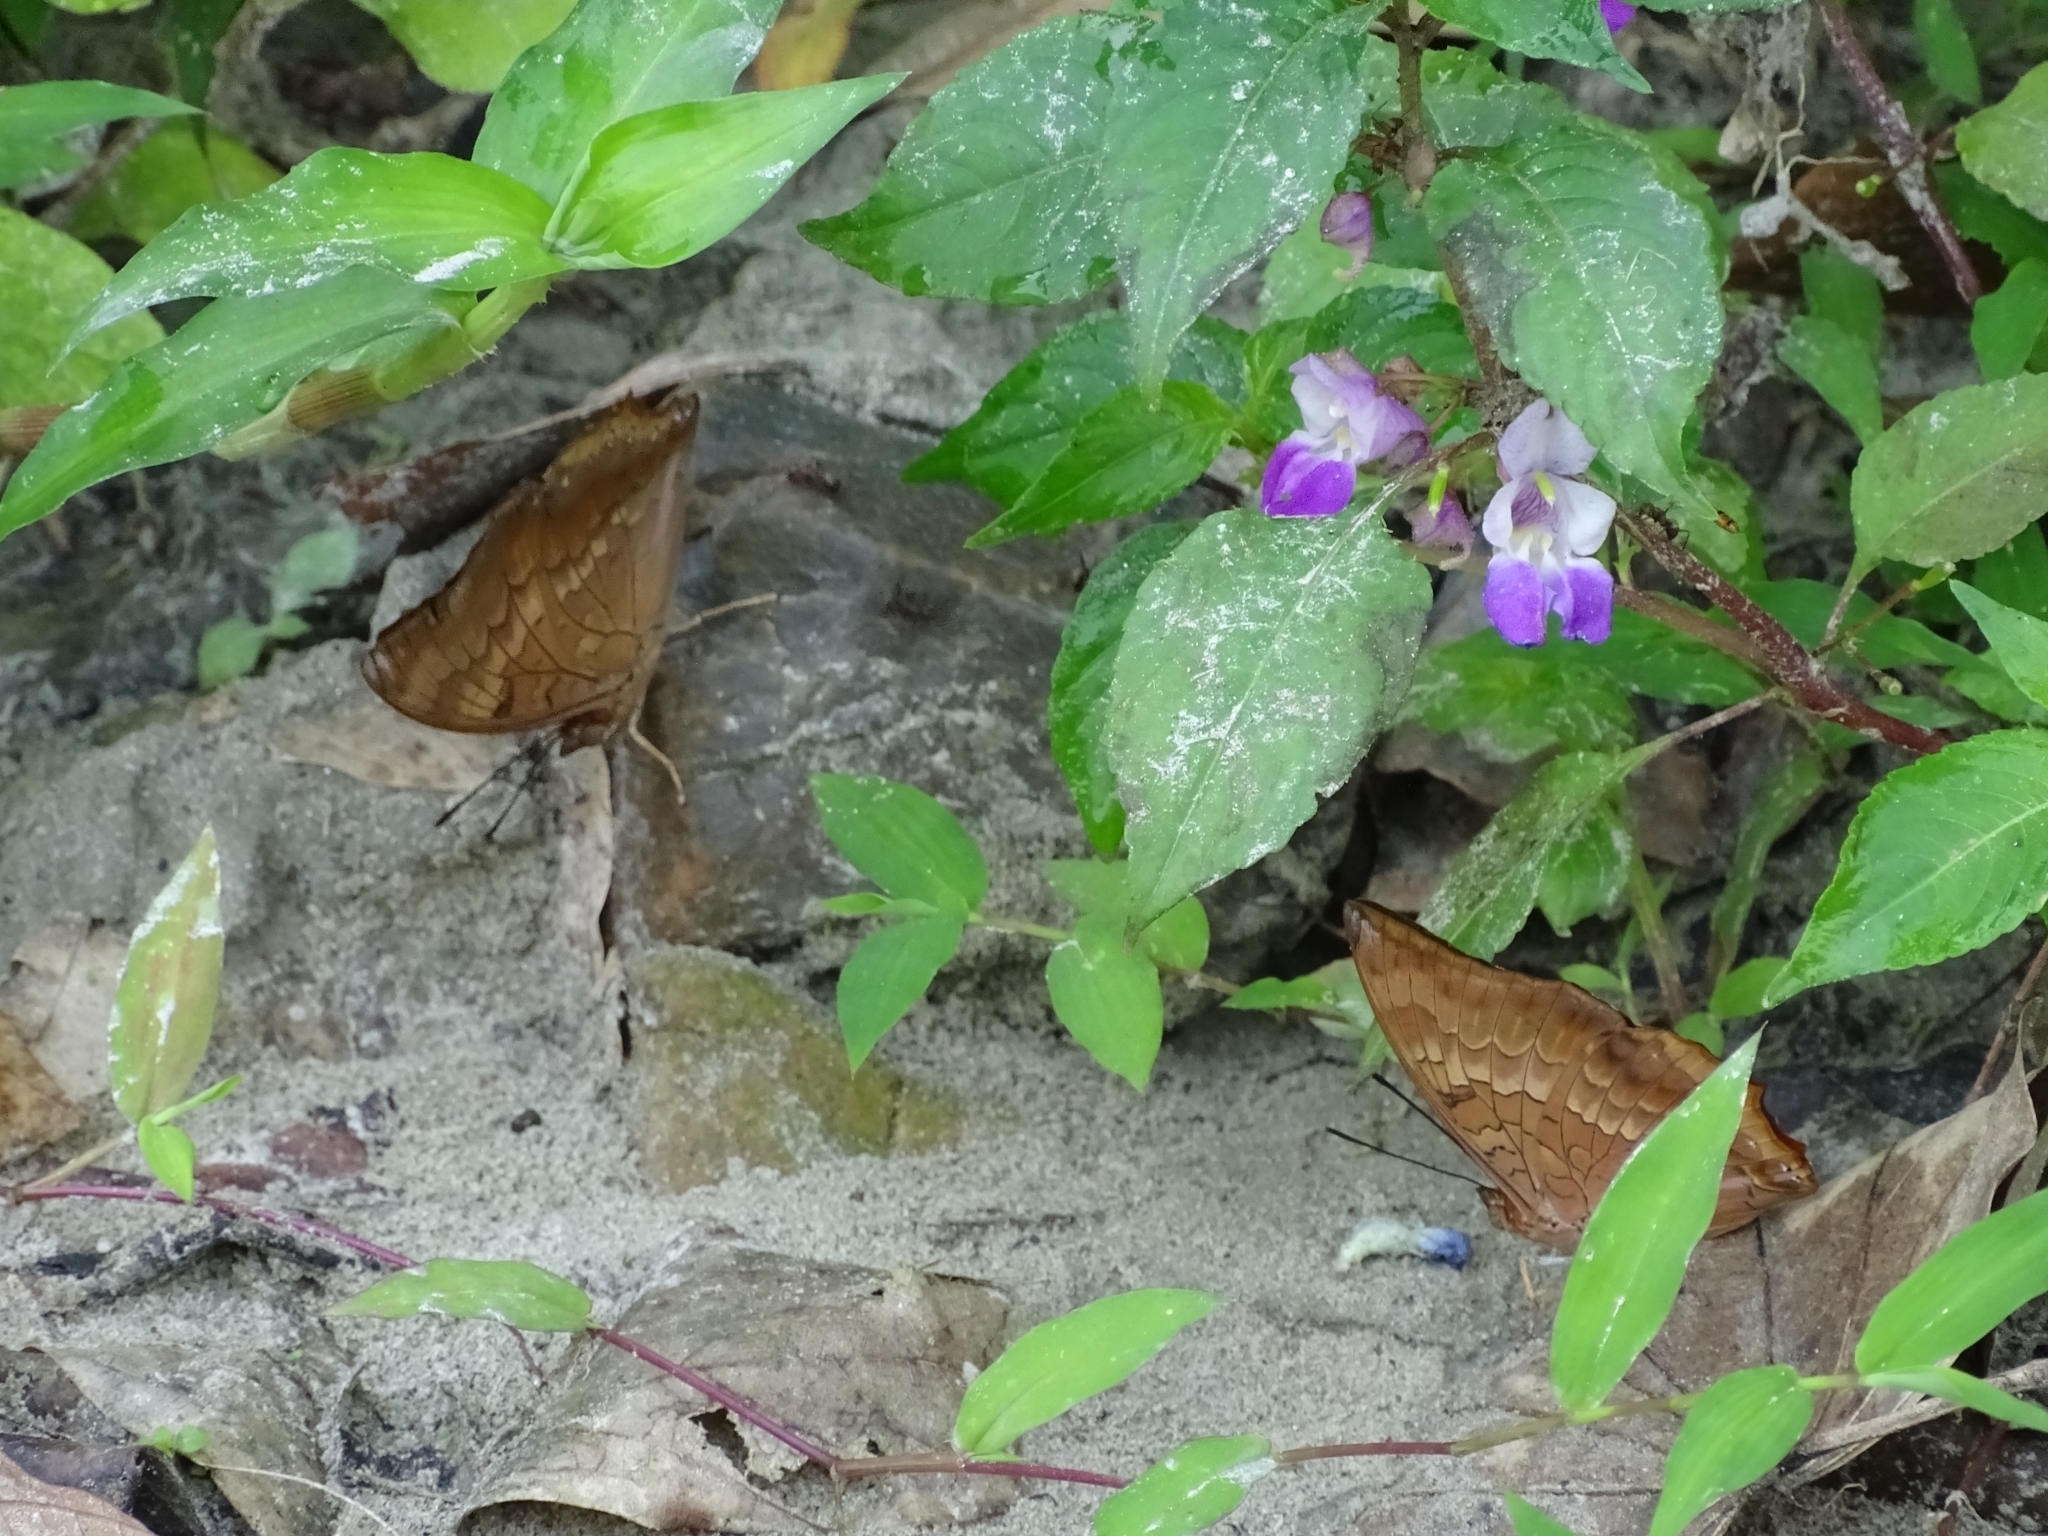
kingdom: Animalia
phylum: Arthropoda
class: Insecta
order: Lepidoptera
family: Nymphalidae
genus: Charaxes
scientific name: Charaxes bernardus
